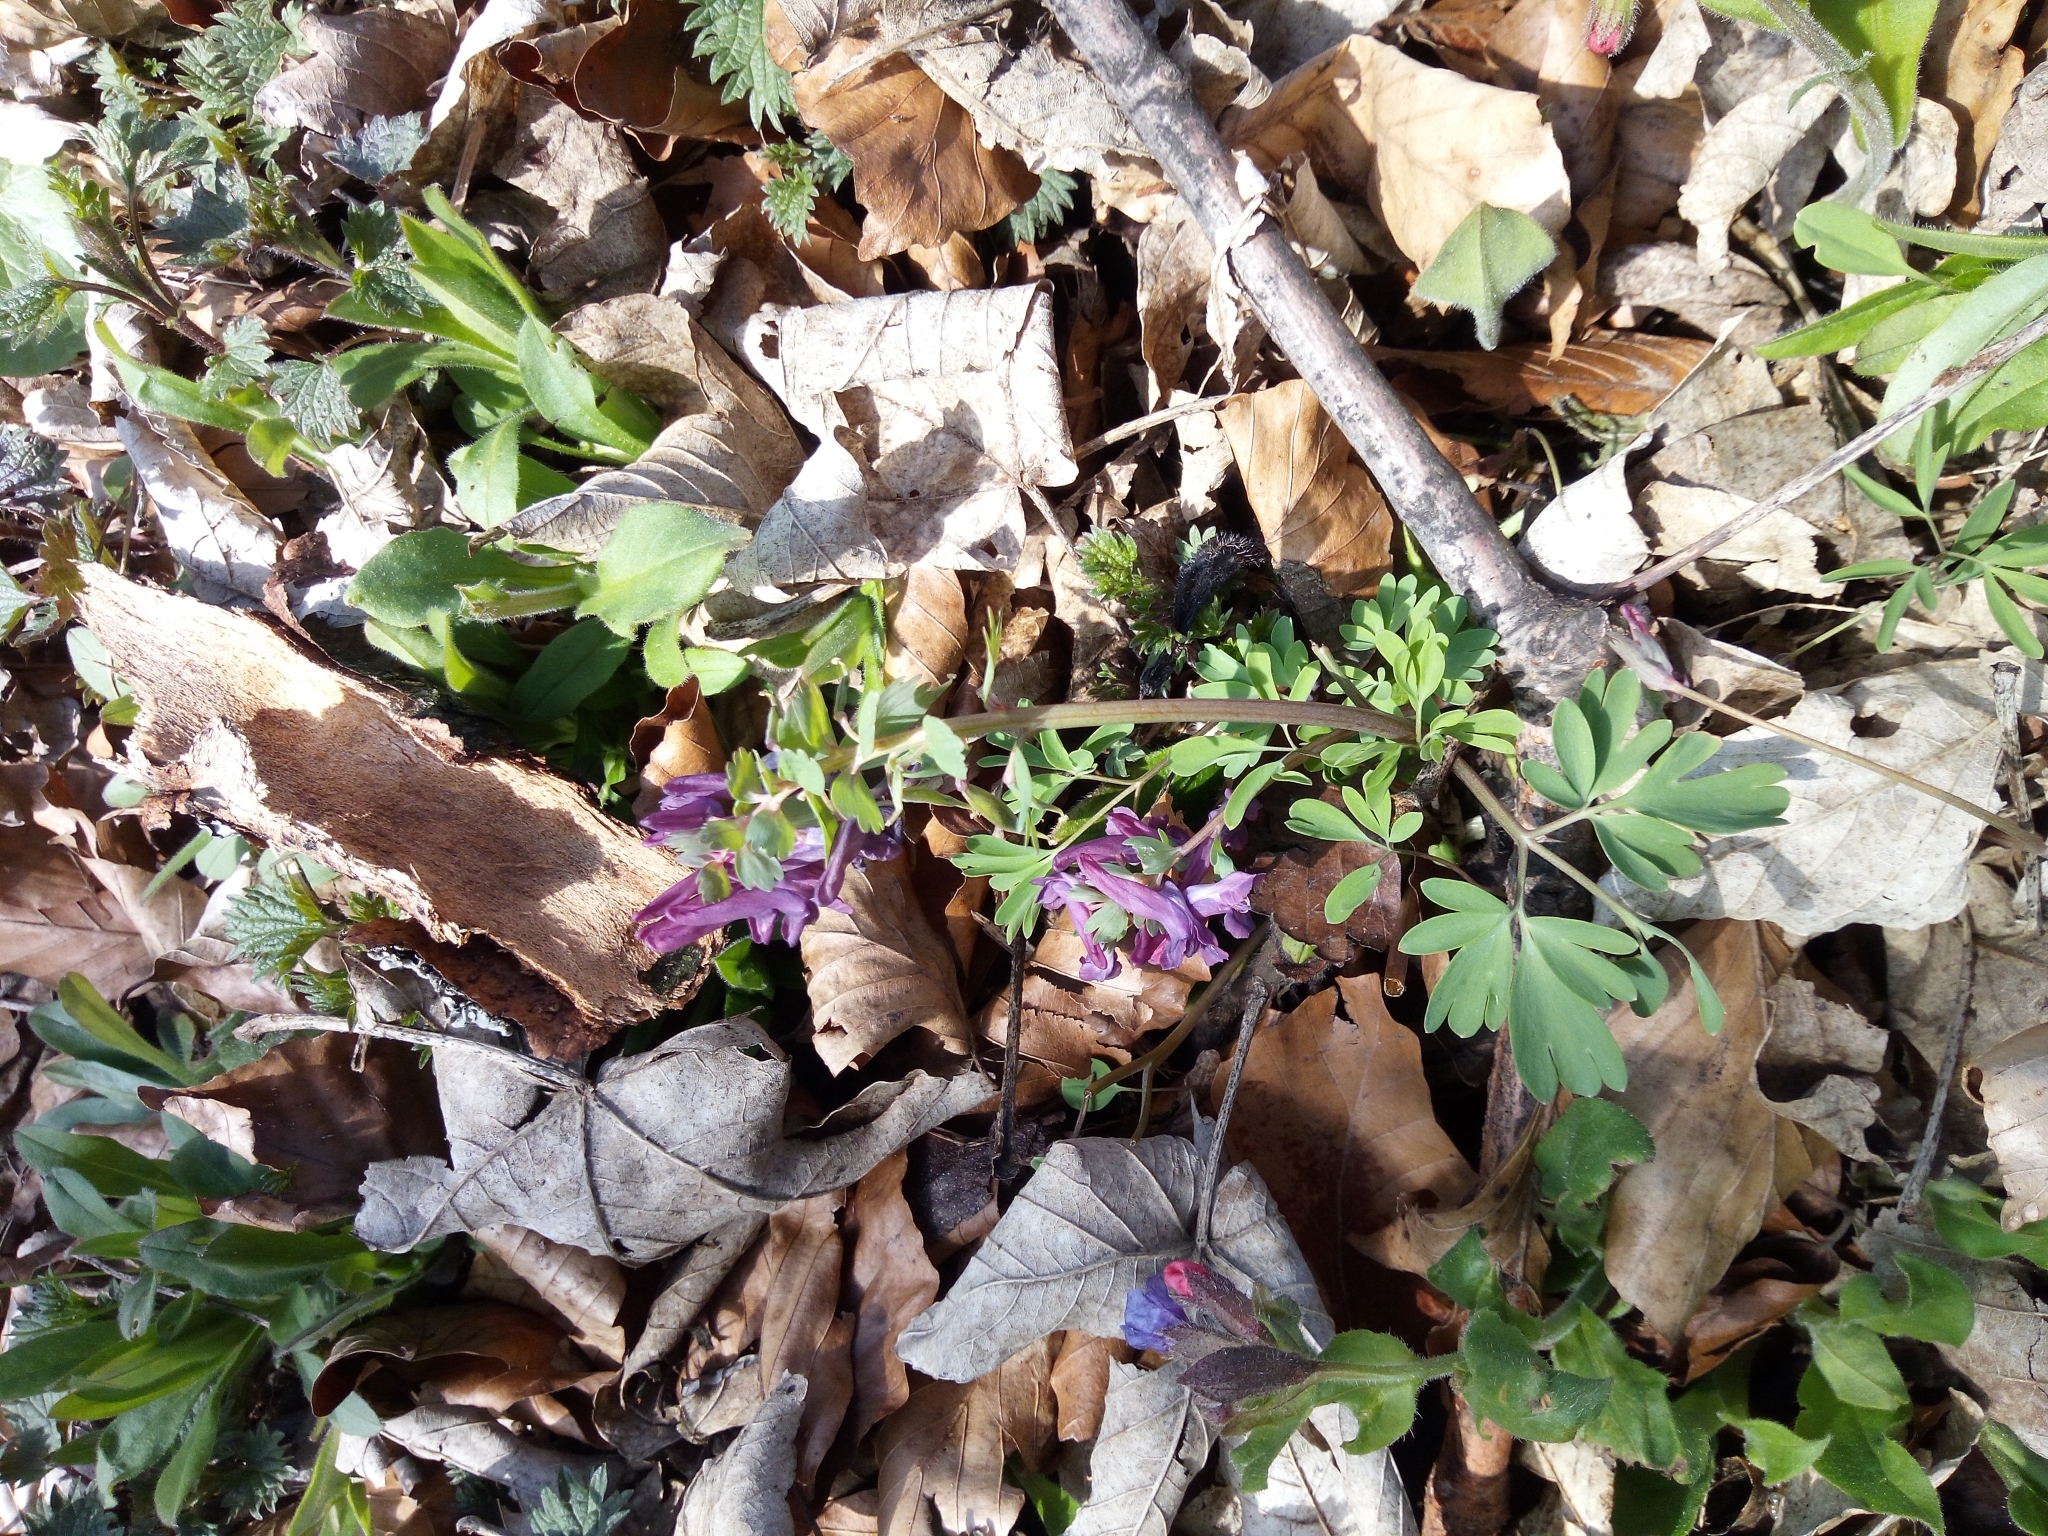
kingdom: Plantae
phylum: Tracheophyta
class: Magnoliopsida
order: Ranunculales
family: Papaveraceae
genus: Corydalis
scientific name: Corydalis solida
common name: Bird-in-a-bush
